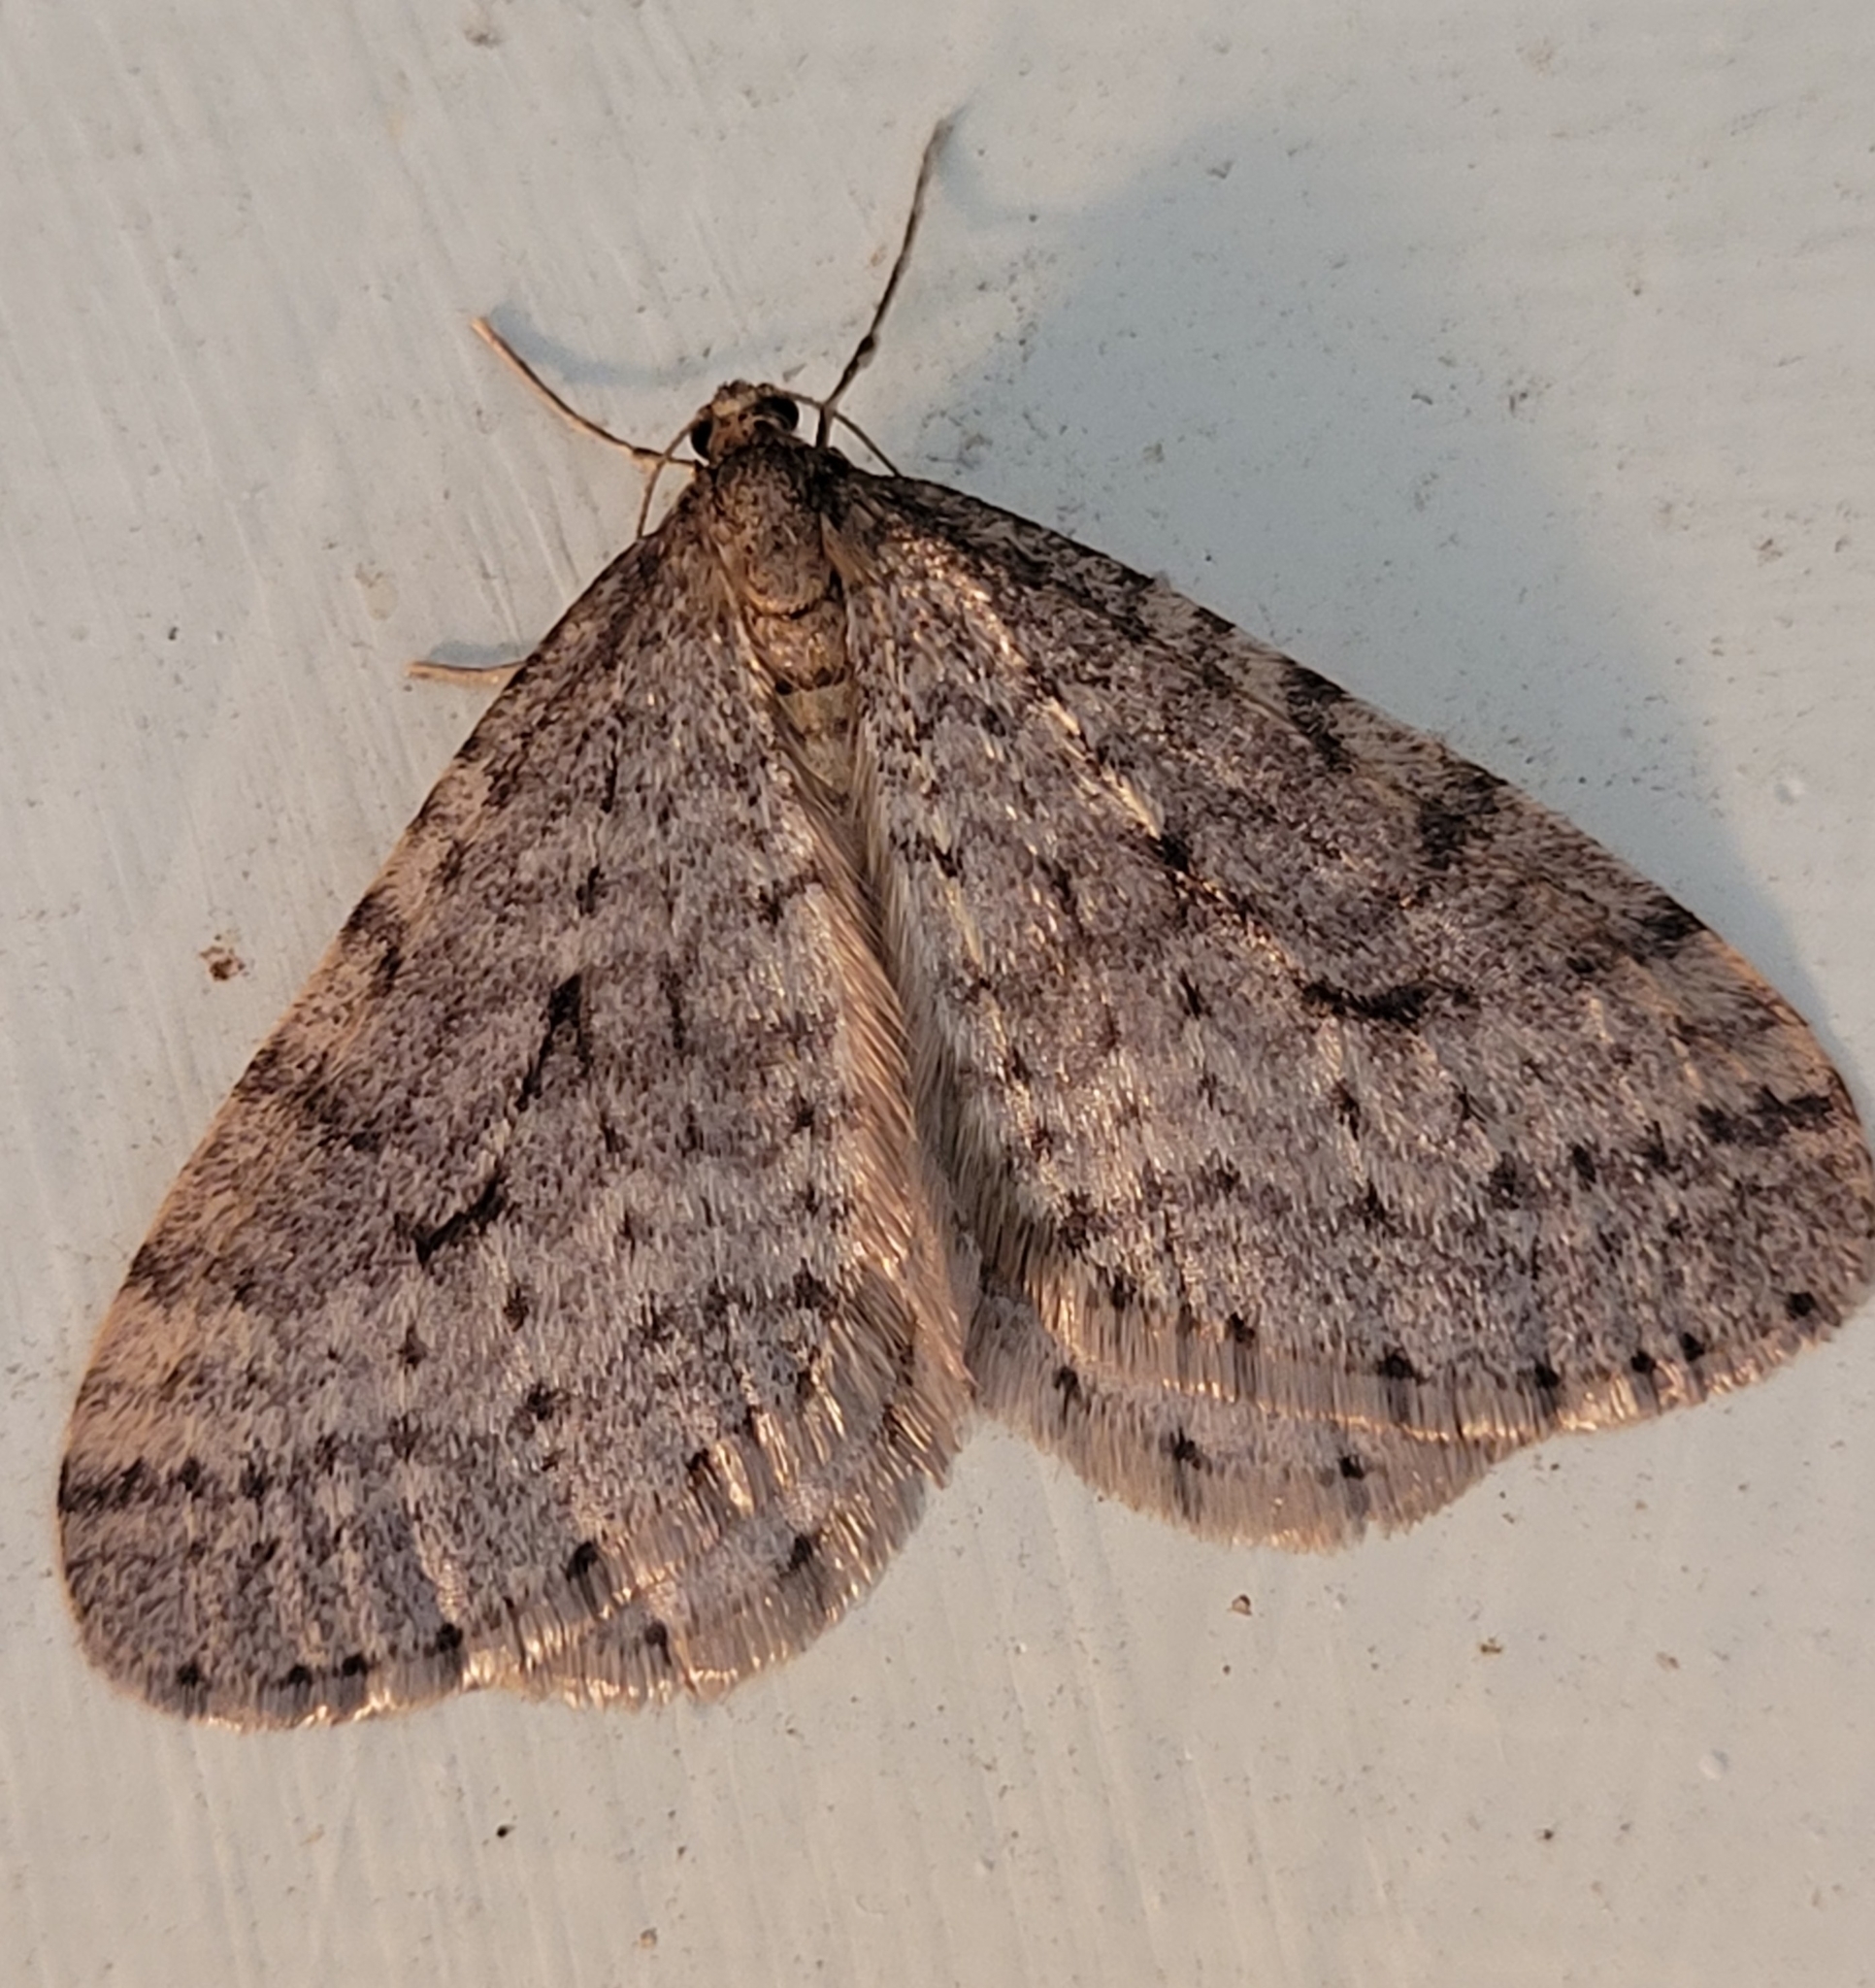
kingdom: Animalia
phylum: Arthropoda
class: Insecta
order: Lepidoptera
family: Geometridae
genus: Operophtera
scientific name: Operophtera bruceata
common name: Bruce spanworm
